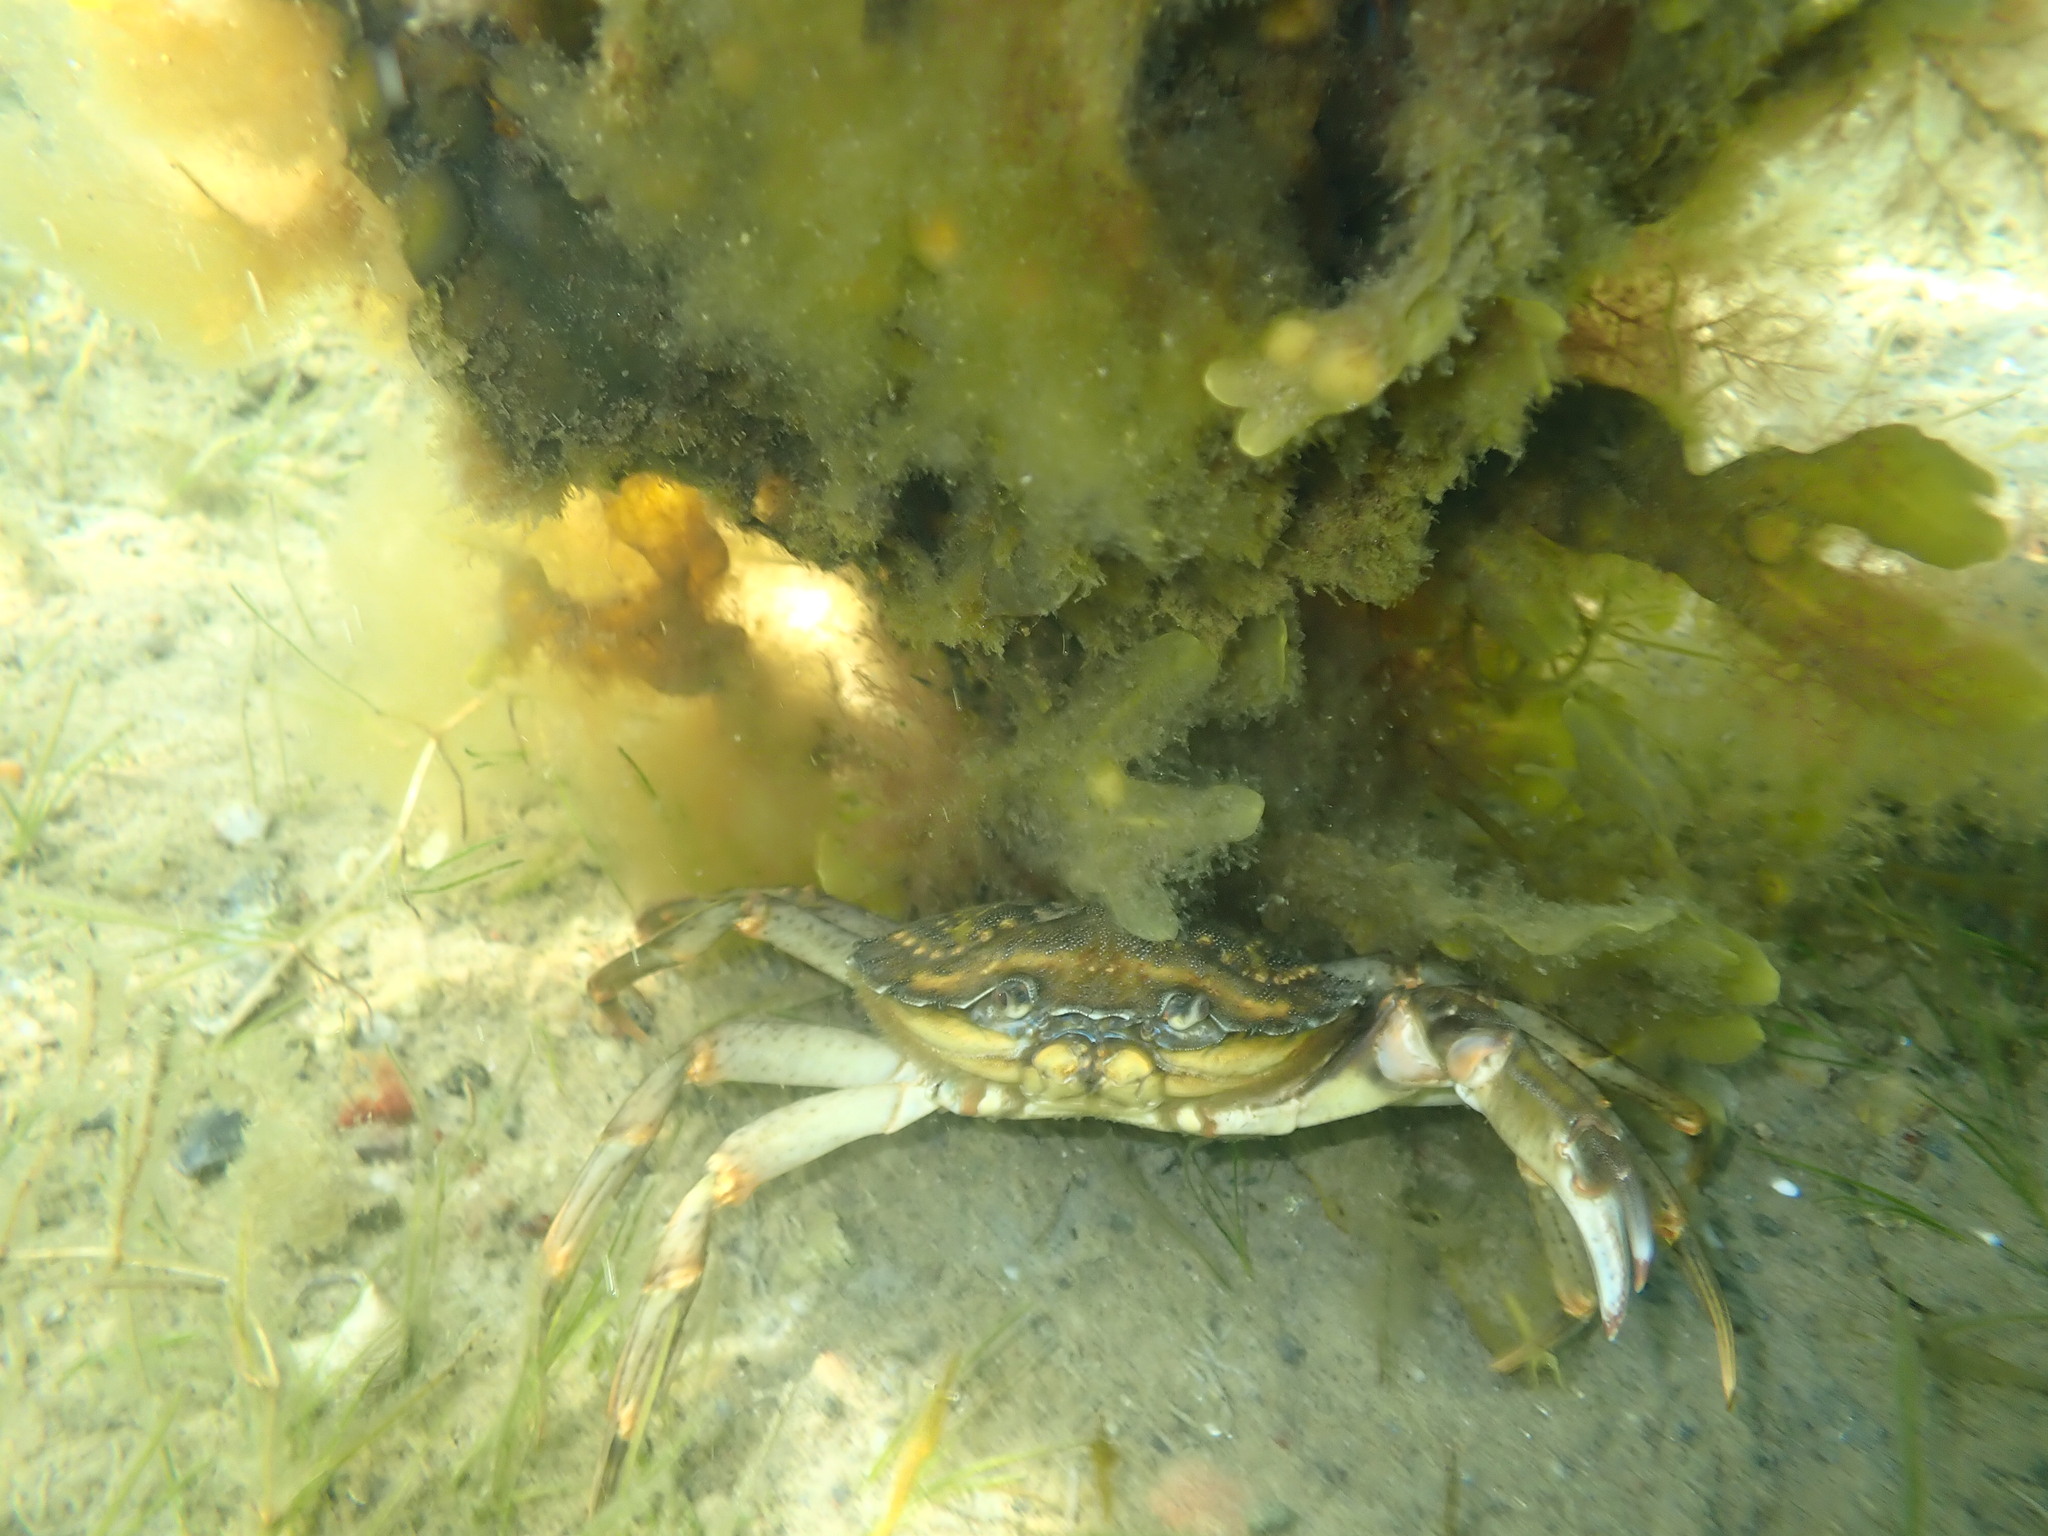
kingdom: Animalia
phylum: Arthropoda
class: Malacostraca
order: Decapoda
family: Carcinidae
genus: Carcinus
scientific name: Carcinus maenas
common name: European green crab
